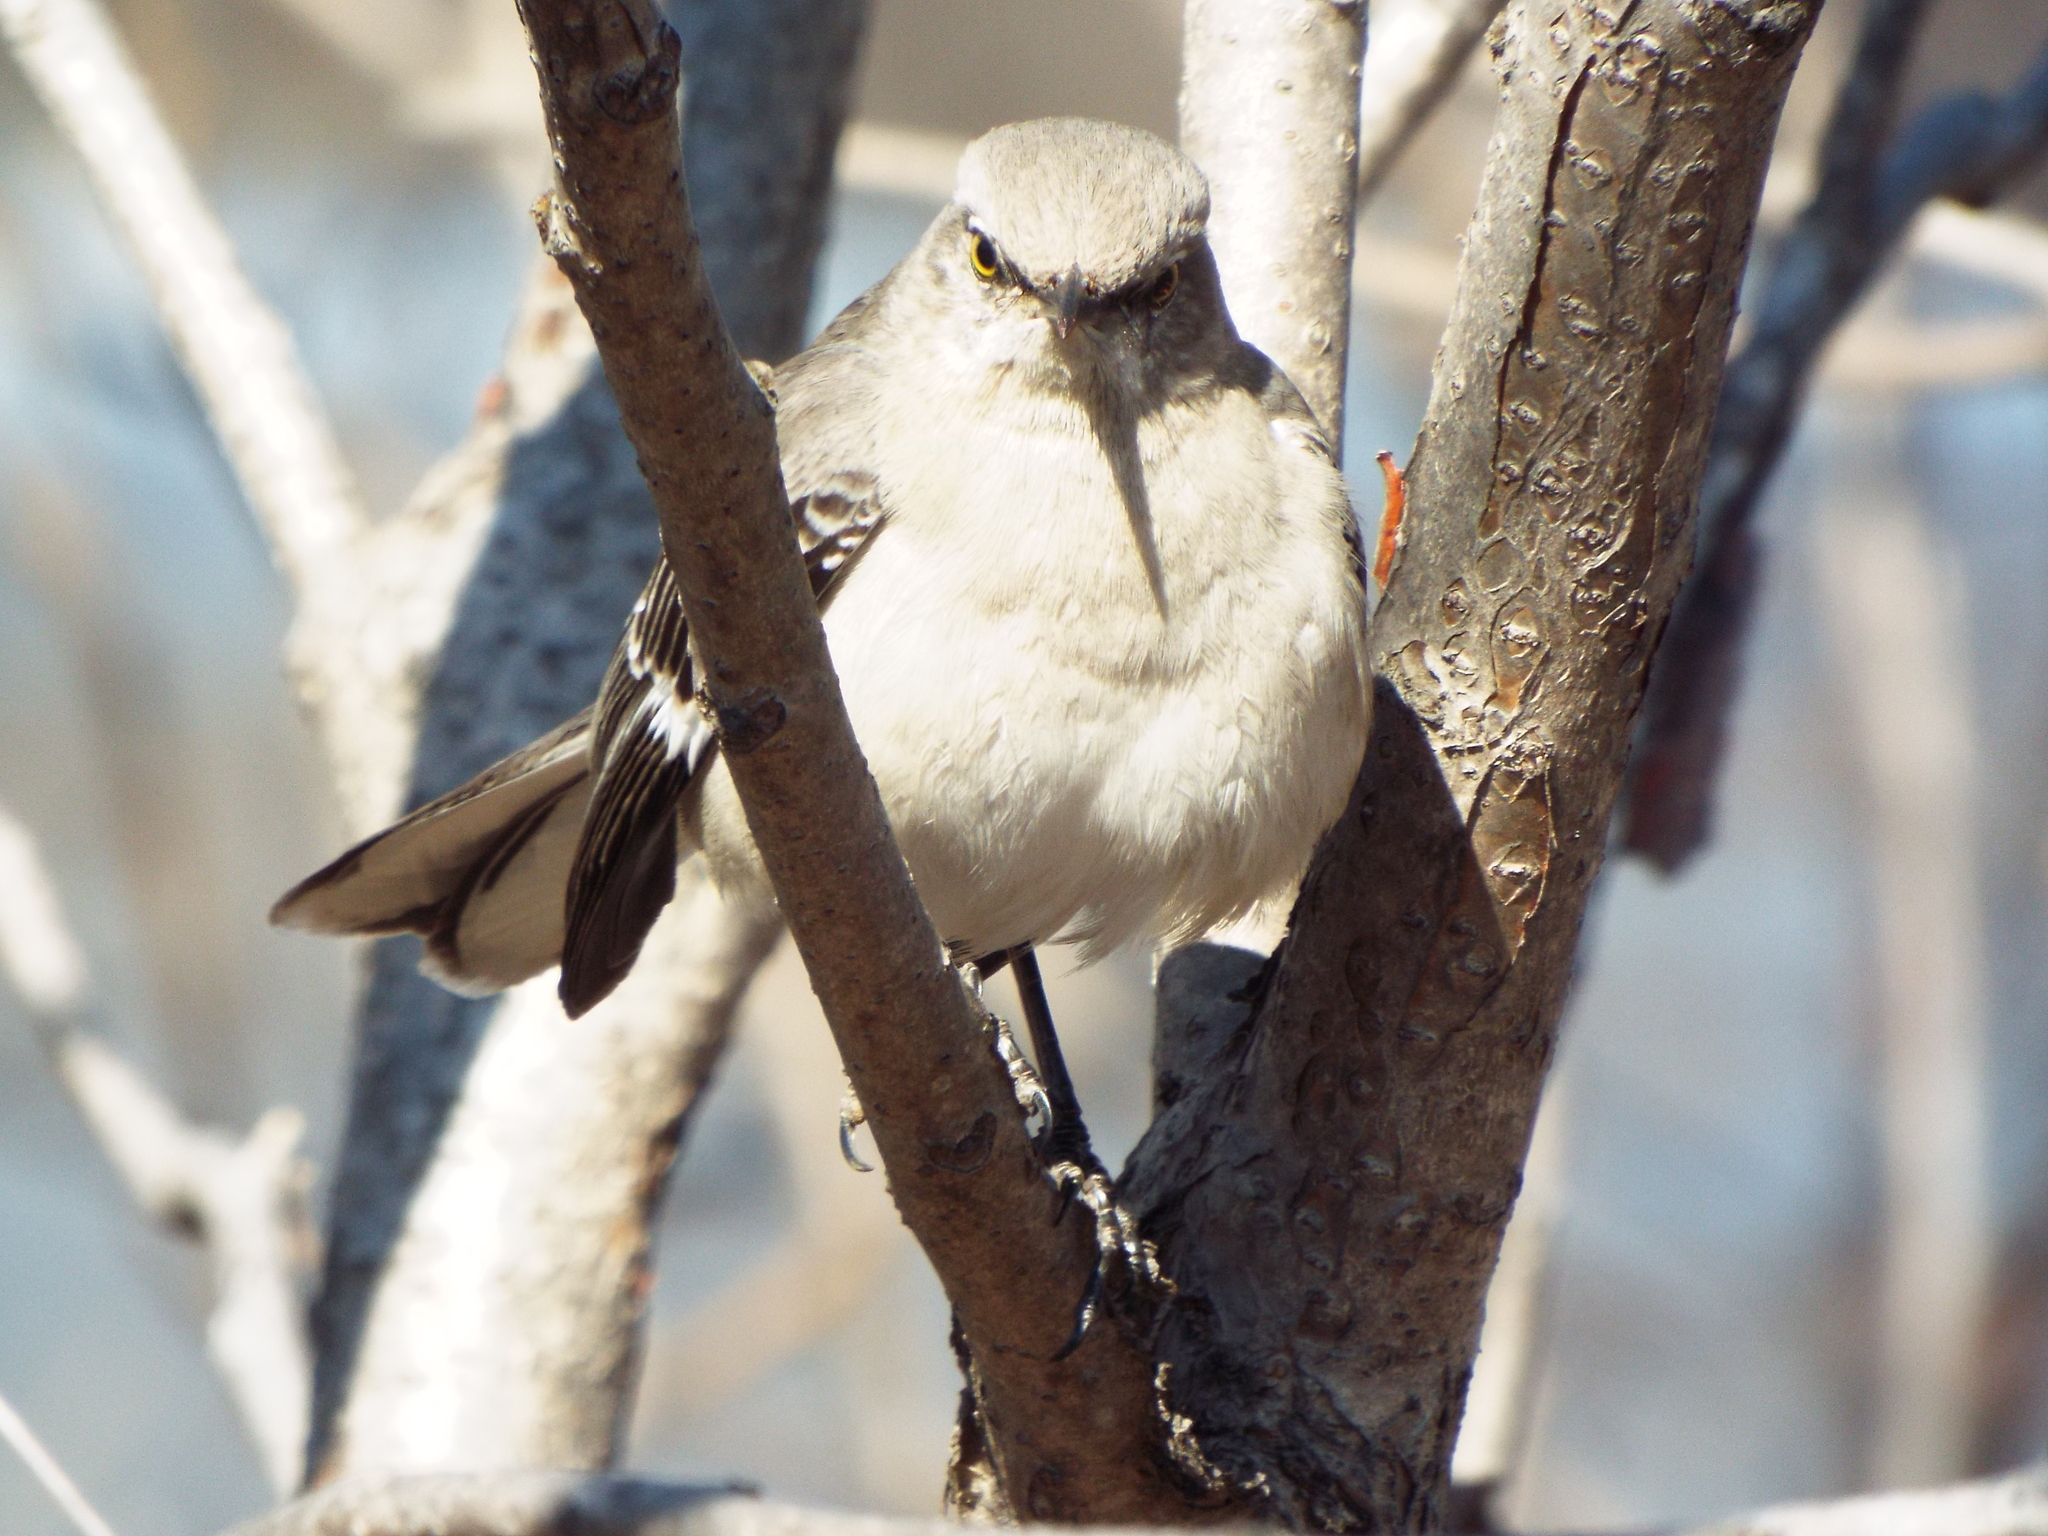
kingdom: Animalia
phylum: Chordata
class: Aves
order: Passeriformes
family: Mimidae
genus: Mimus
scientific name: Mimus polyglottos
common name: Northern mockingbird
